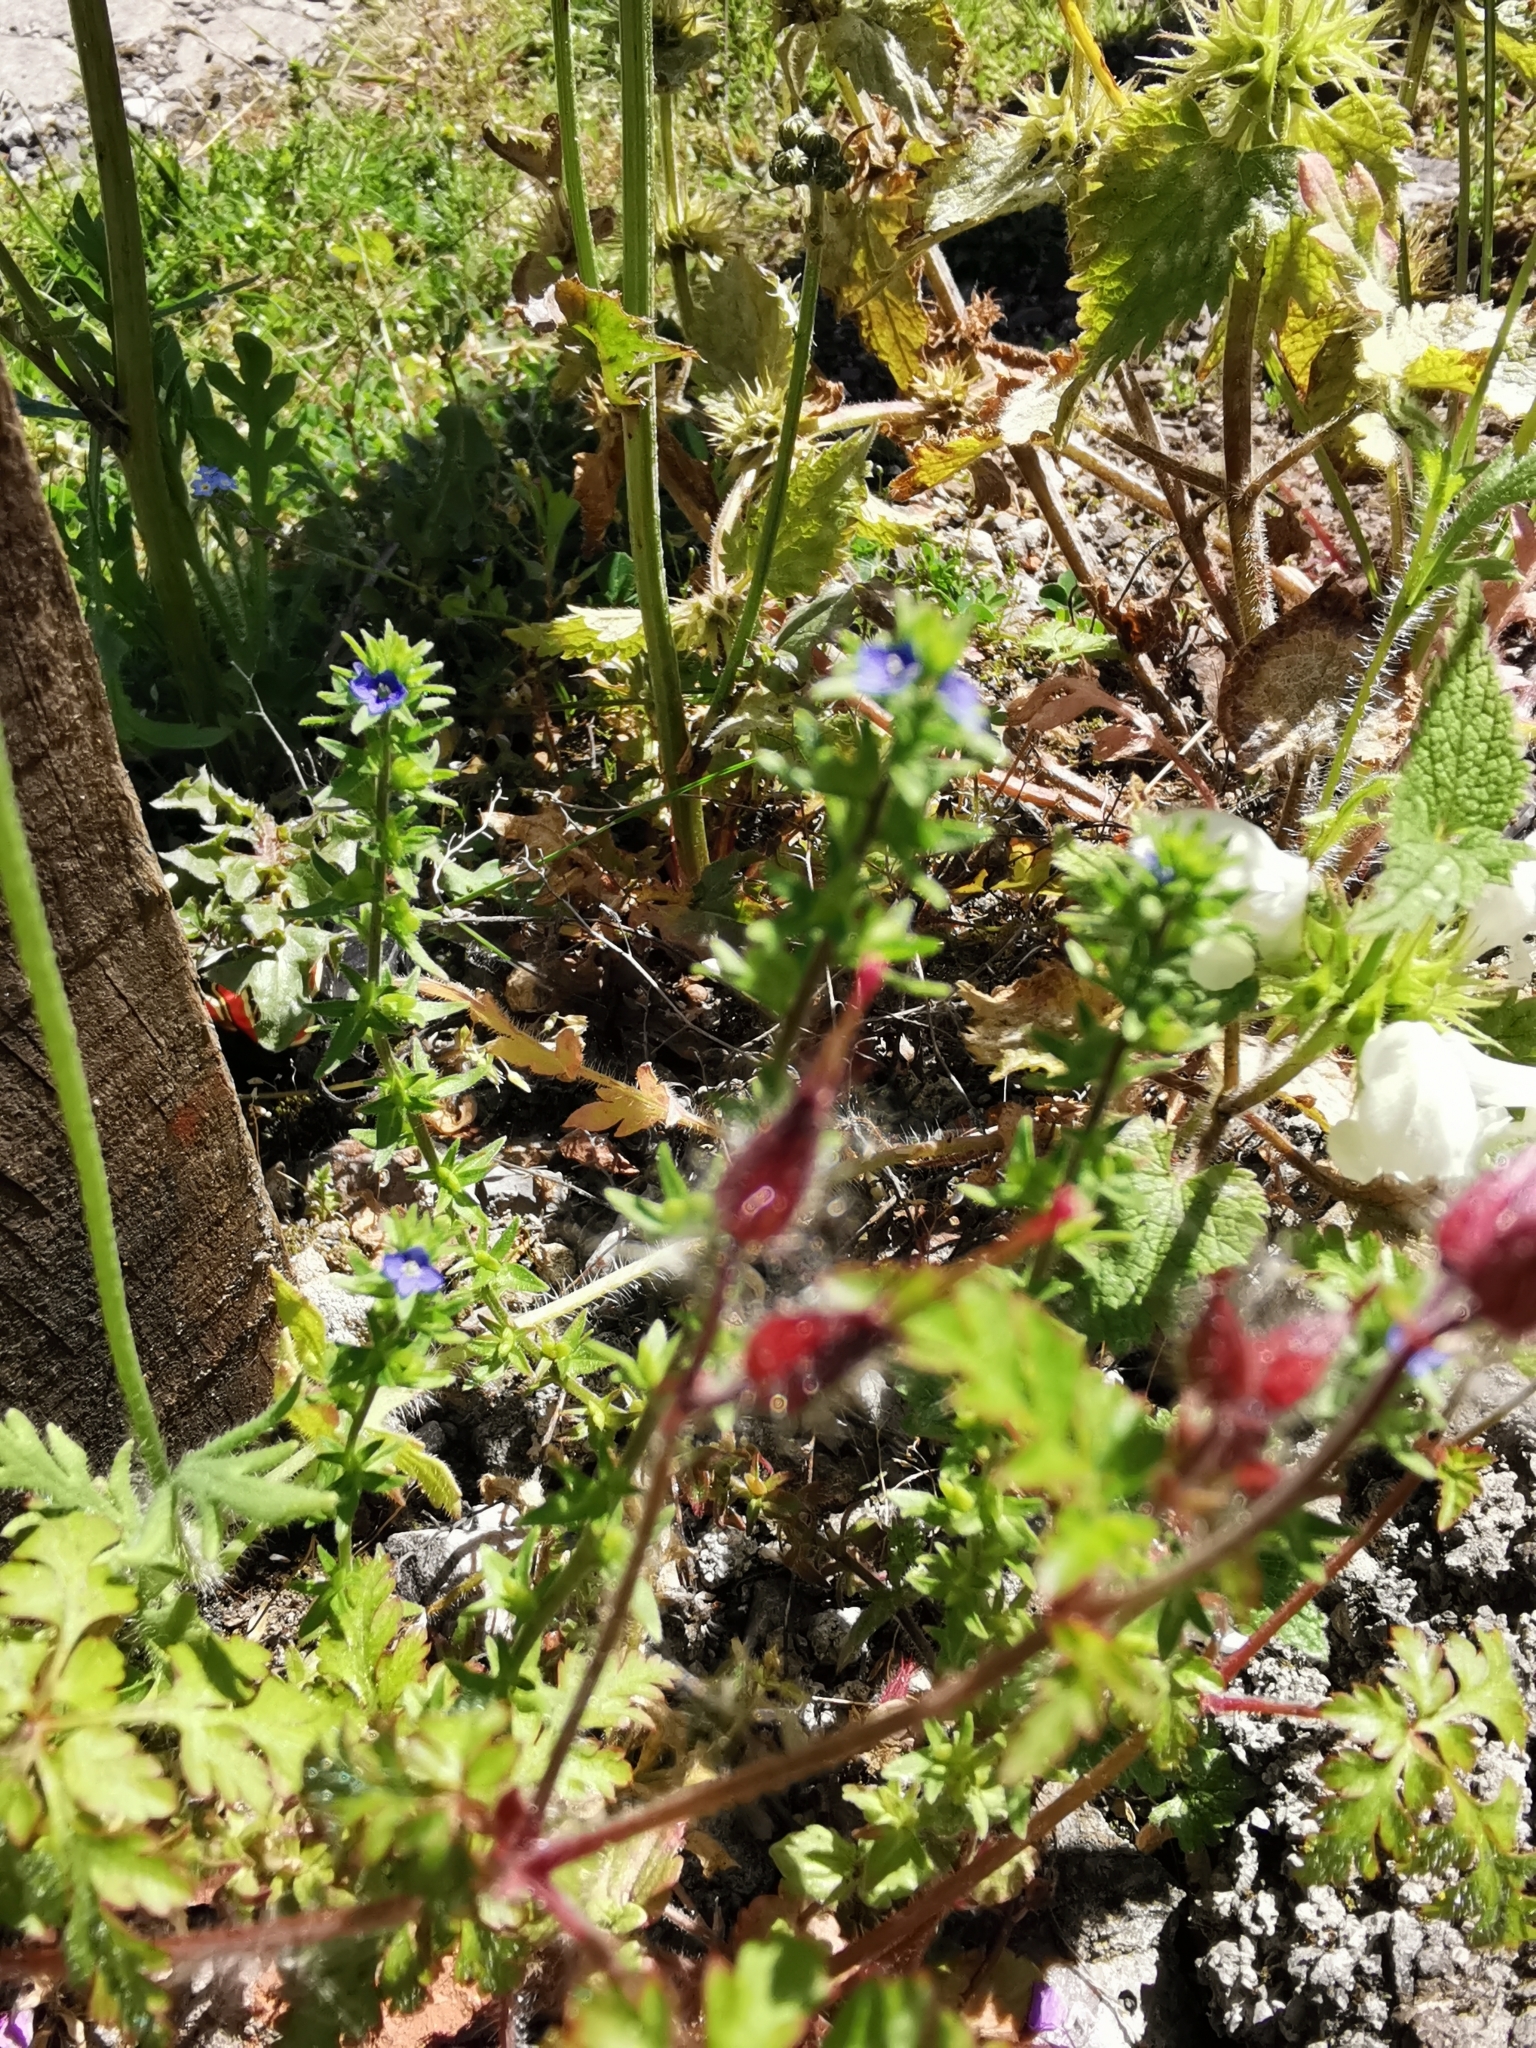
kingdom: Plantae
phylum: Tracheophyta
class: Magnoliopsida
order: Lamiales
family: Plantaginaceae
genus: Veronica
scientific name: Veronica arvensis
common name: Corn speedwell
